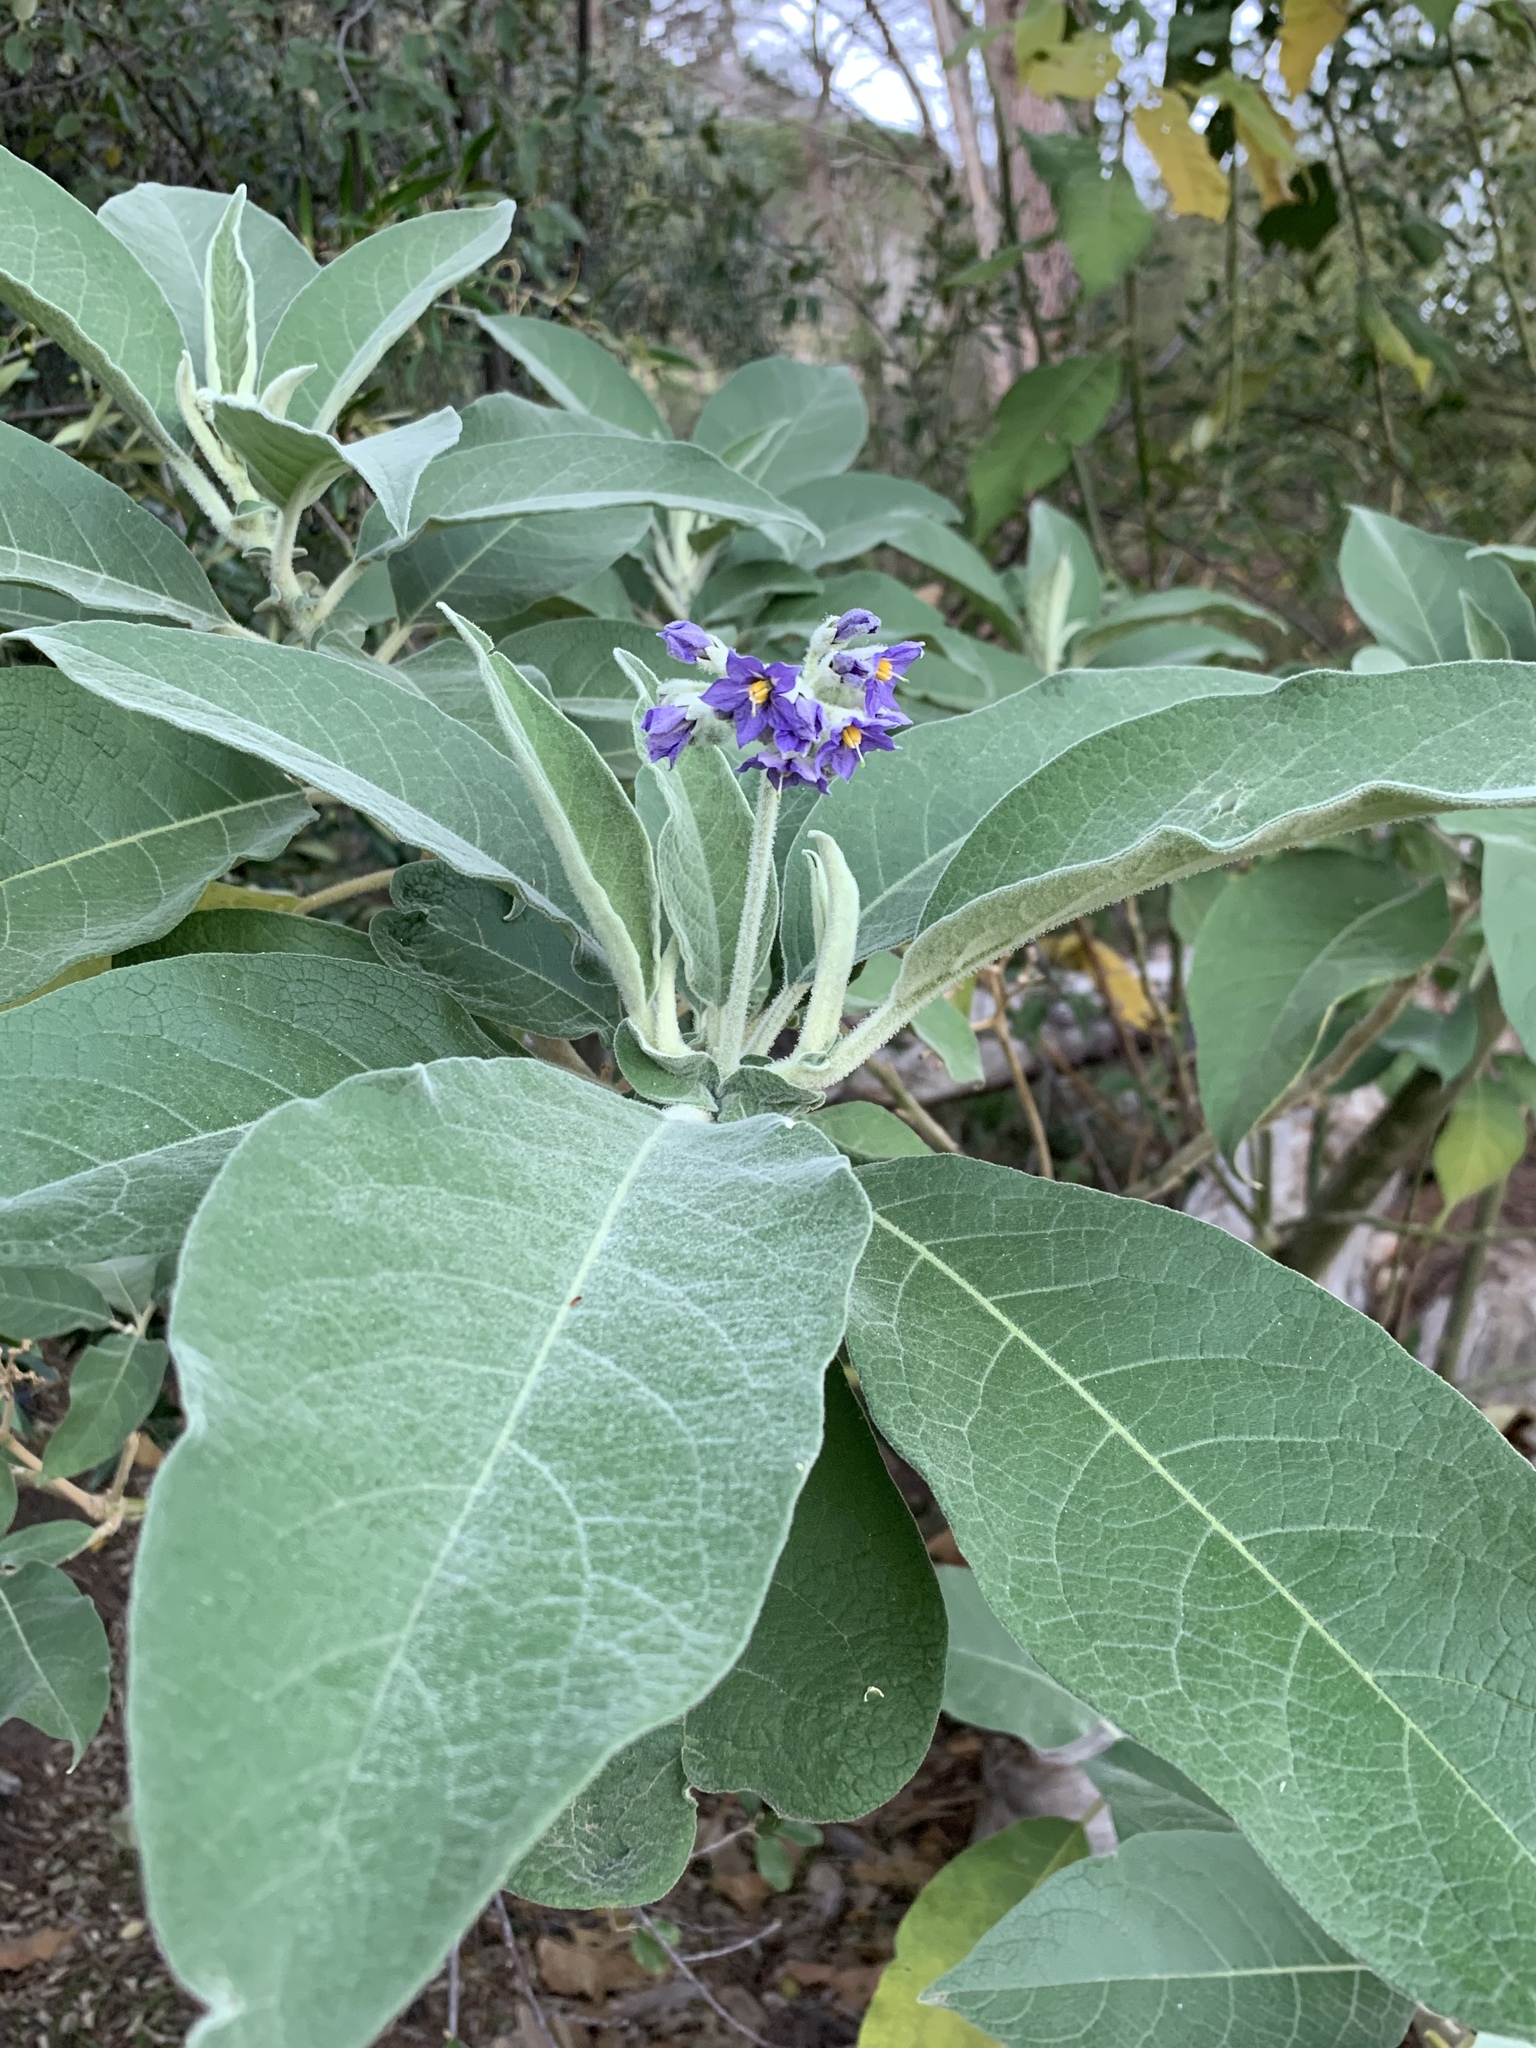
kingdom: Plantae
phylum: Tracheophyta
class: Magnoliopsida
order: Solanales
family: Solanaceae
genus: Solanum
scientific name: Solanum mauritianum
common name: Earleaf nightshade
